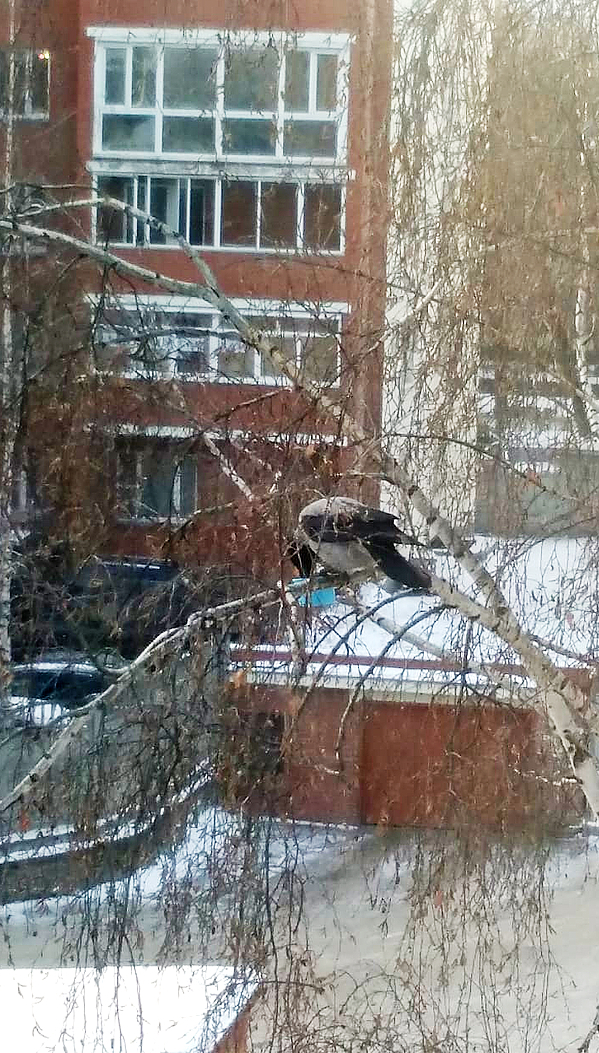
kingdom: Animalia
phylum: Chordata
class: Aves
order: Passeriformes
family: Corvidae
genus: Corvus
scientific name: Corvus cornix
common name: Hooded crow
